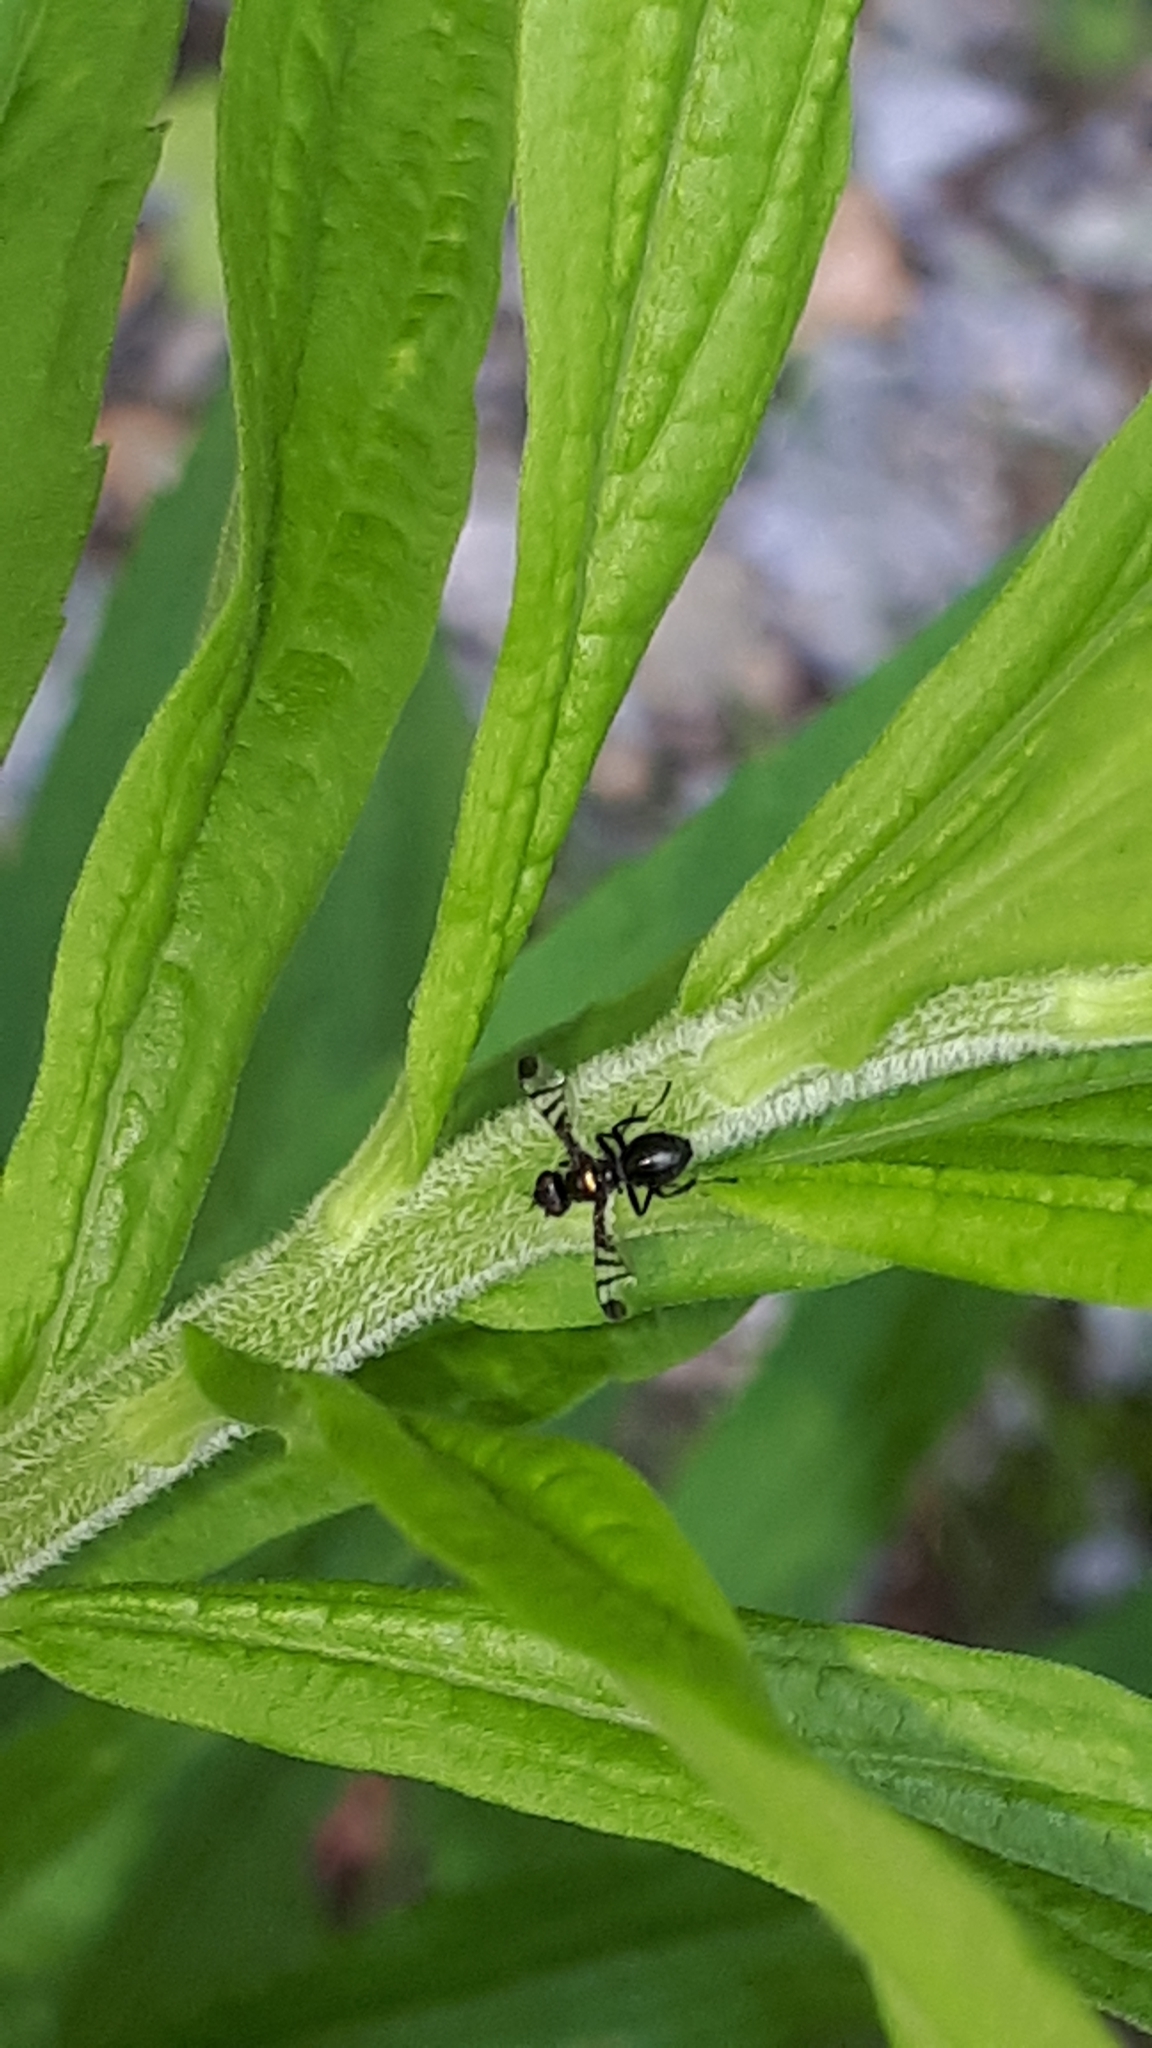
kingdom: Animalia
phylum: Arthropoda
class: Insecta
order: Diptera
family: Platystomatidae
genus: Rivellia
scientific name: Rivellia syngenesiae
